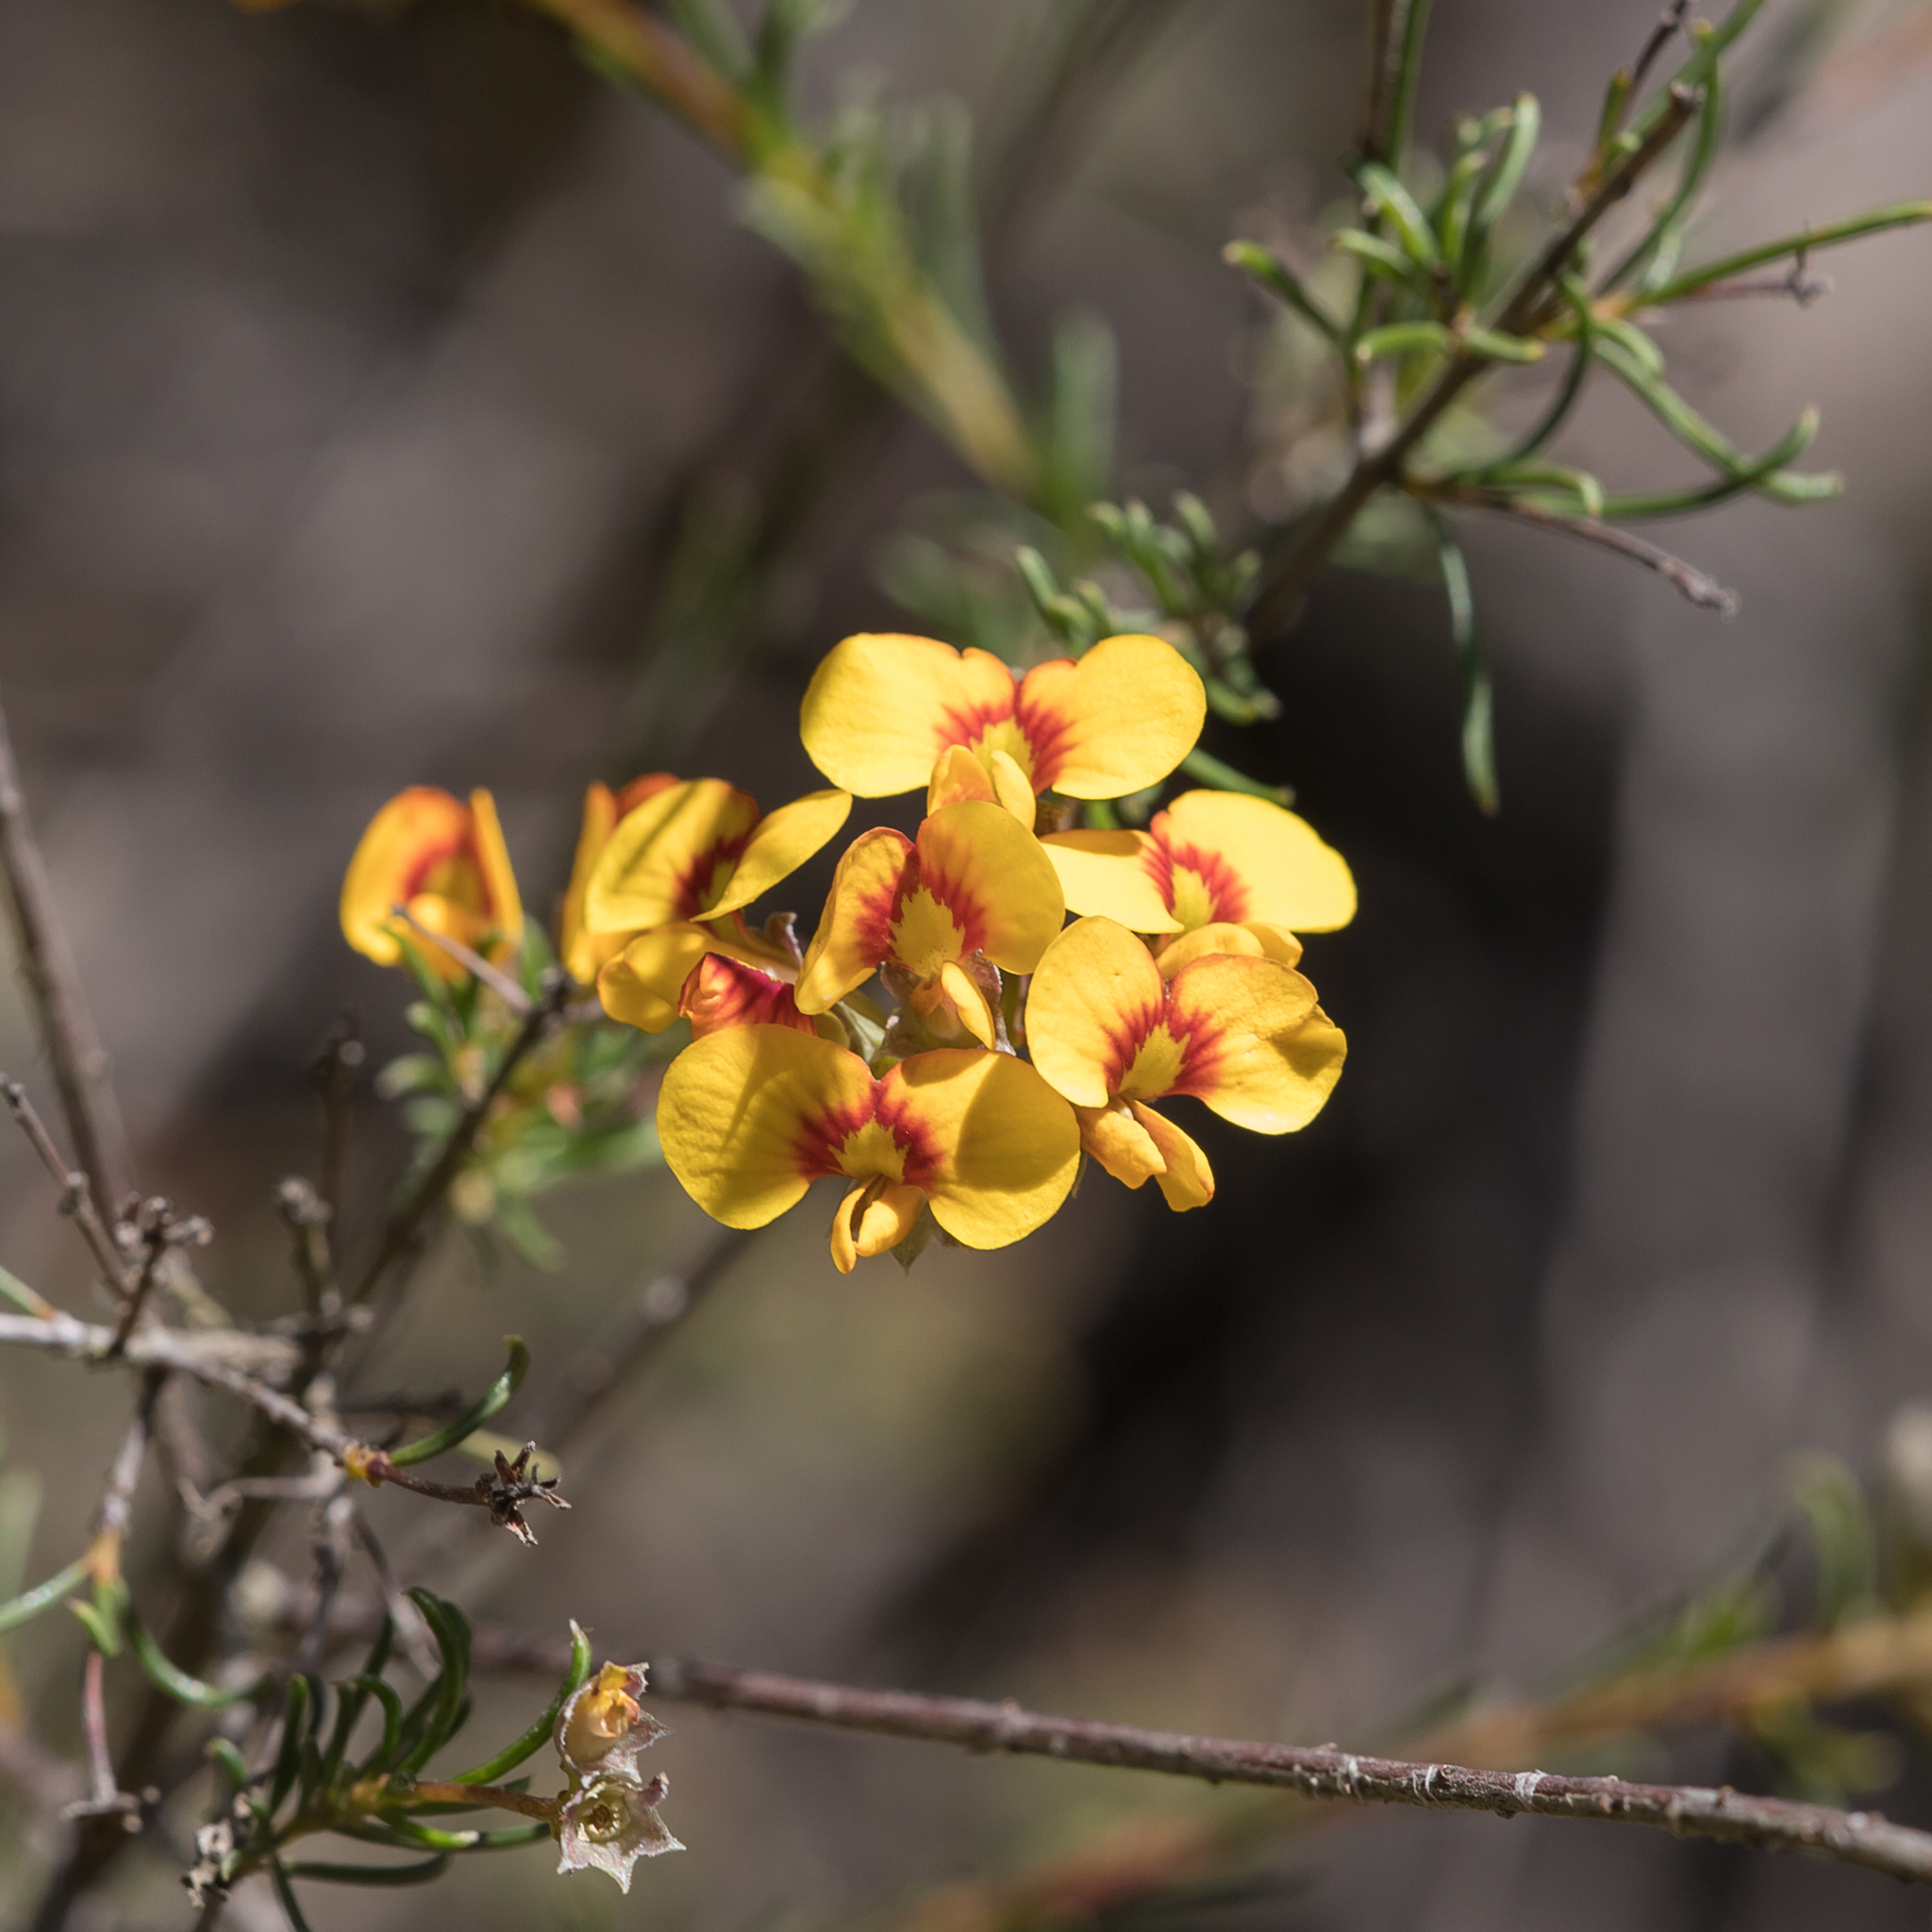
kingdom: Plantae
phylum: Tracheophyta
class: Magnoliopsida
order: Fabales
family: Fabaceae
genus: Dillwynia
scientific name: Dillwynia glaberrima
